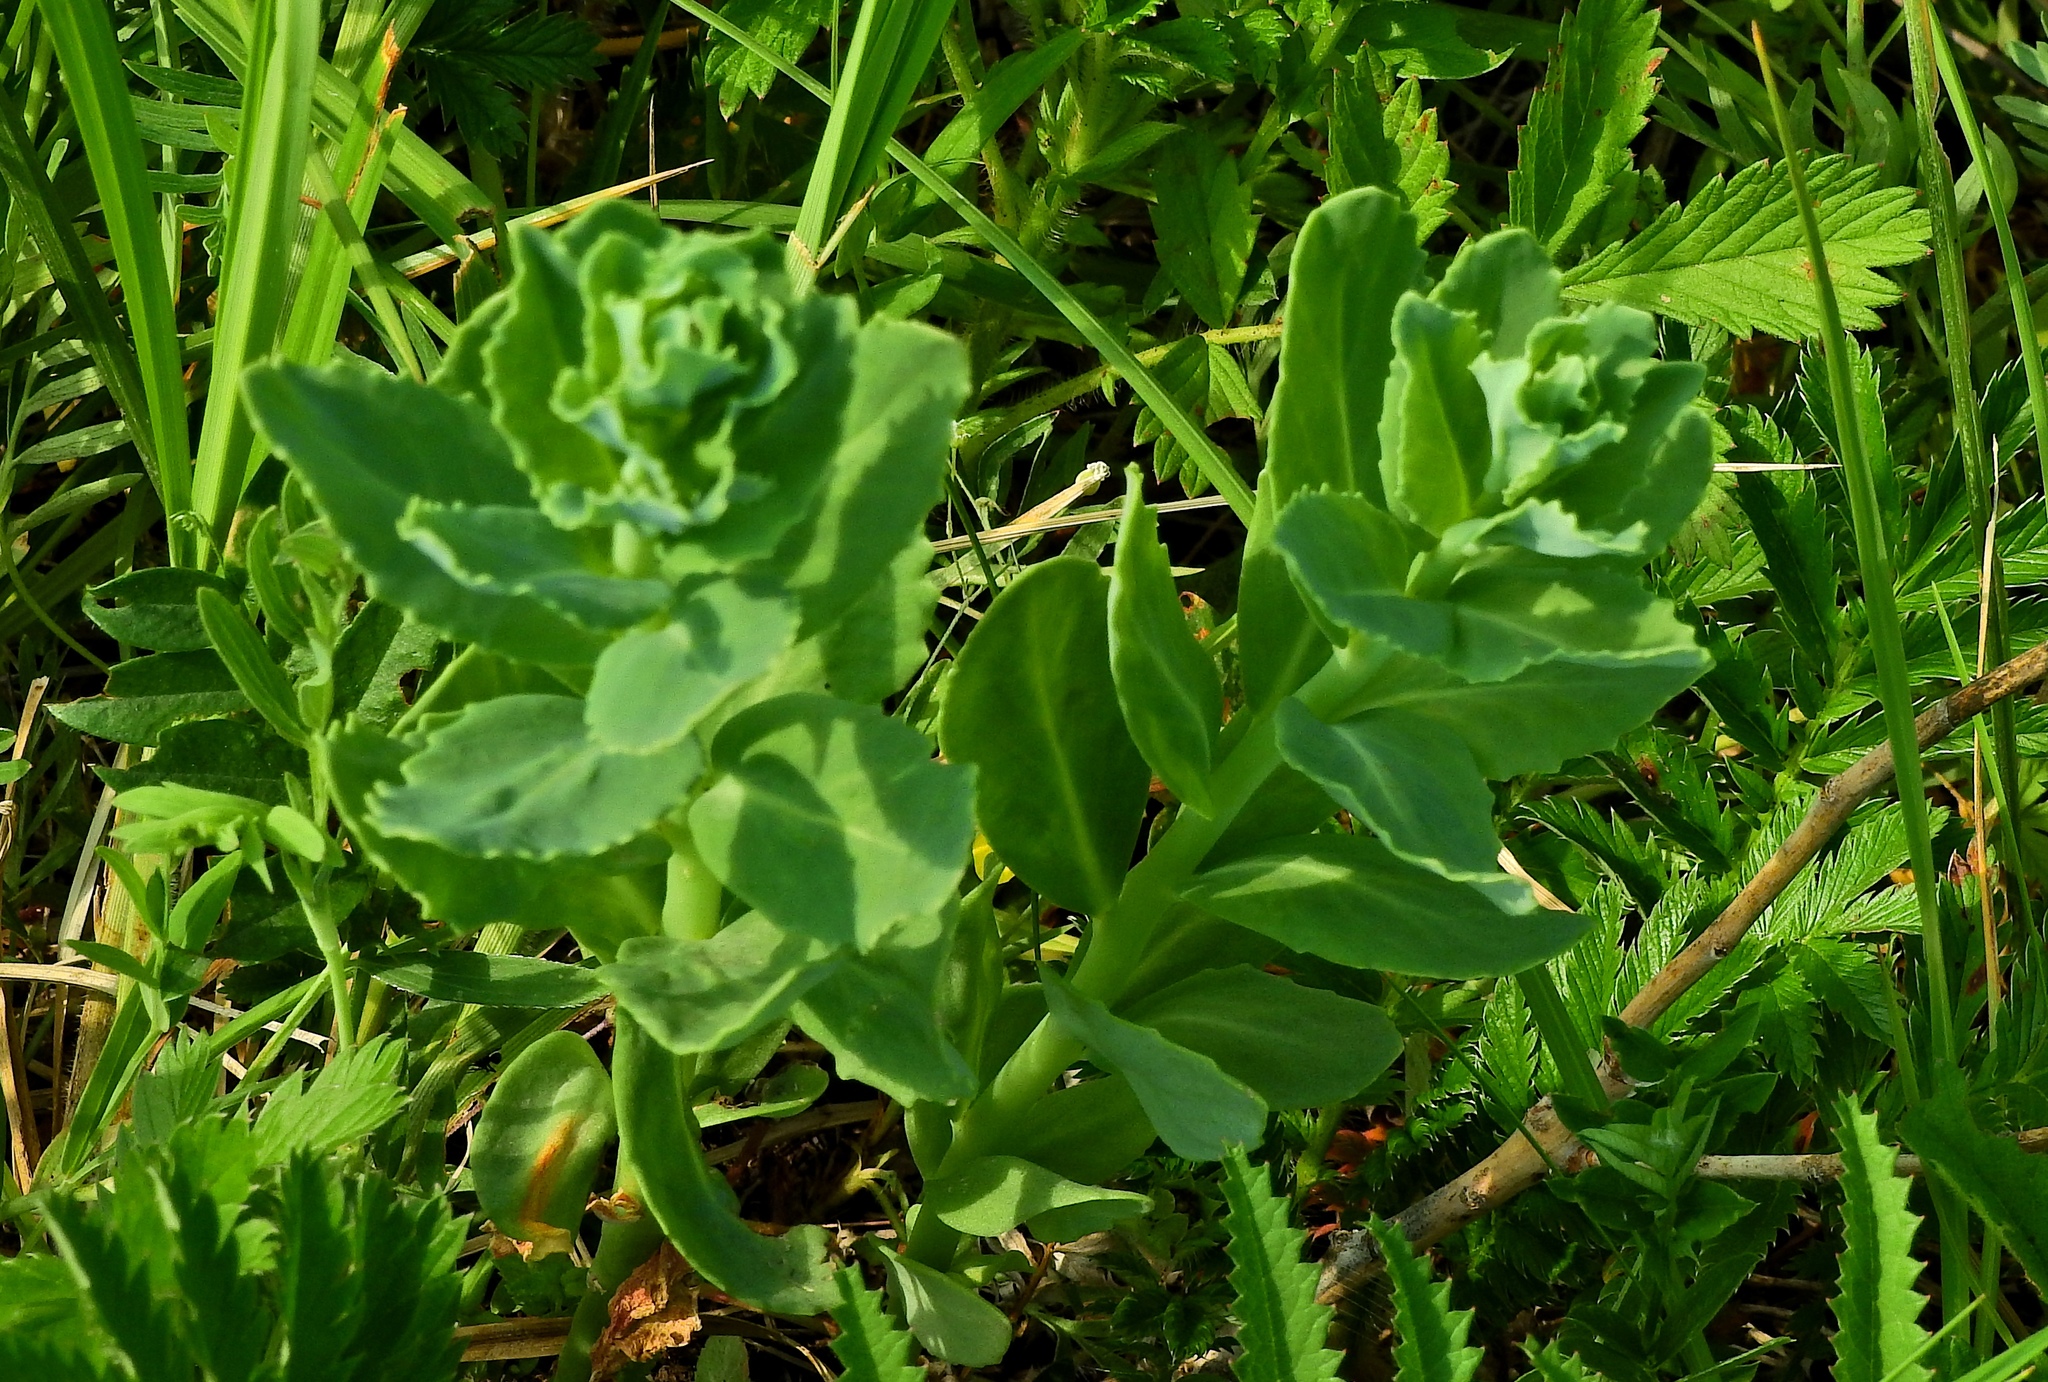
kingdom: Plantae
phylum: Tracheophyta
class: Magnoliopsida
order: Saxifragales
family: Crassulaceae
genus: Hylotelephium
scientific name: Hylotelephium telephium
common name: Live-forever
